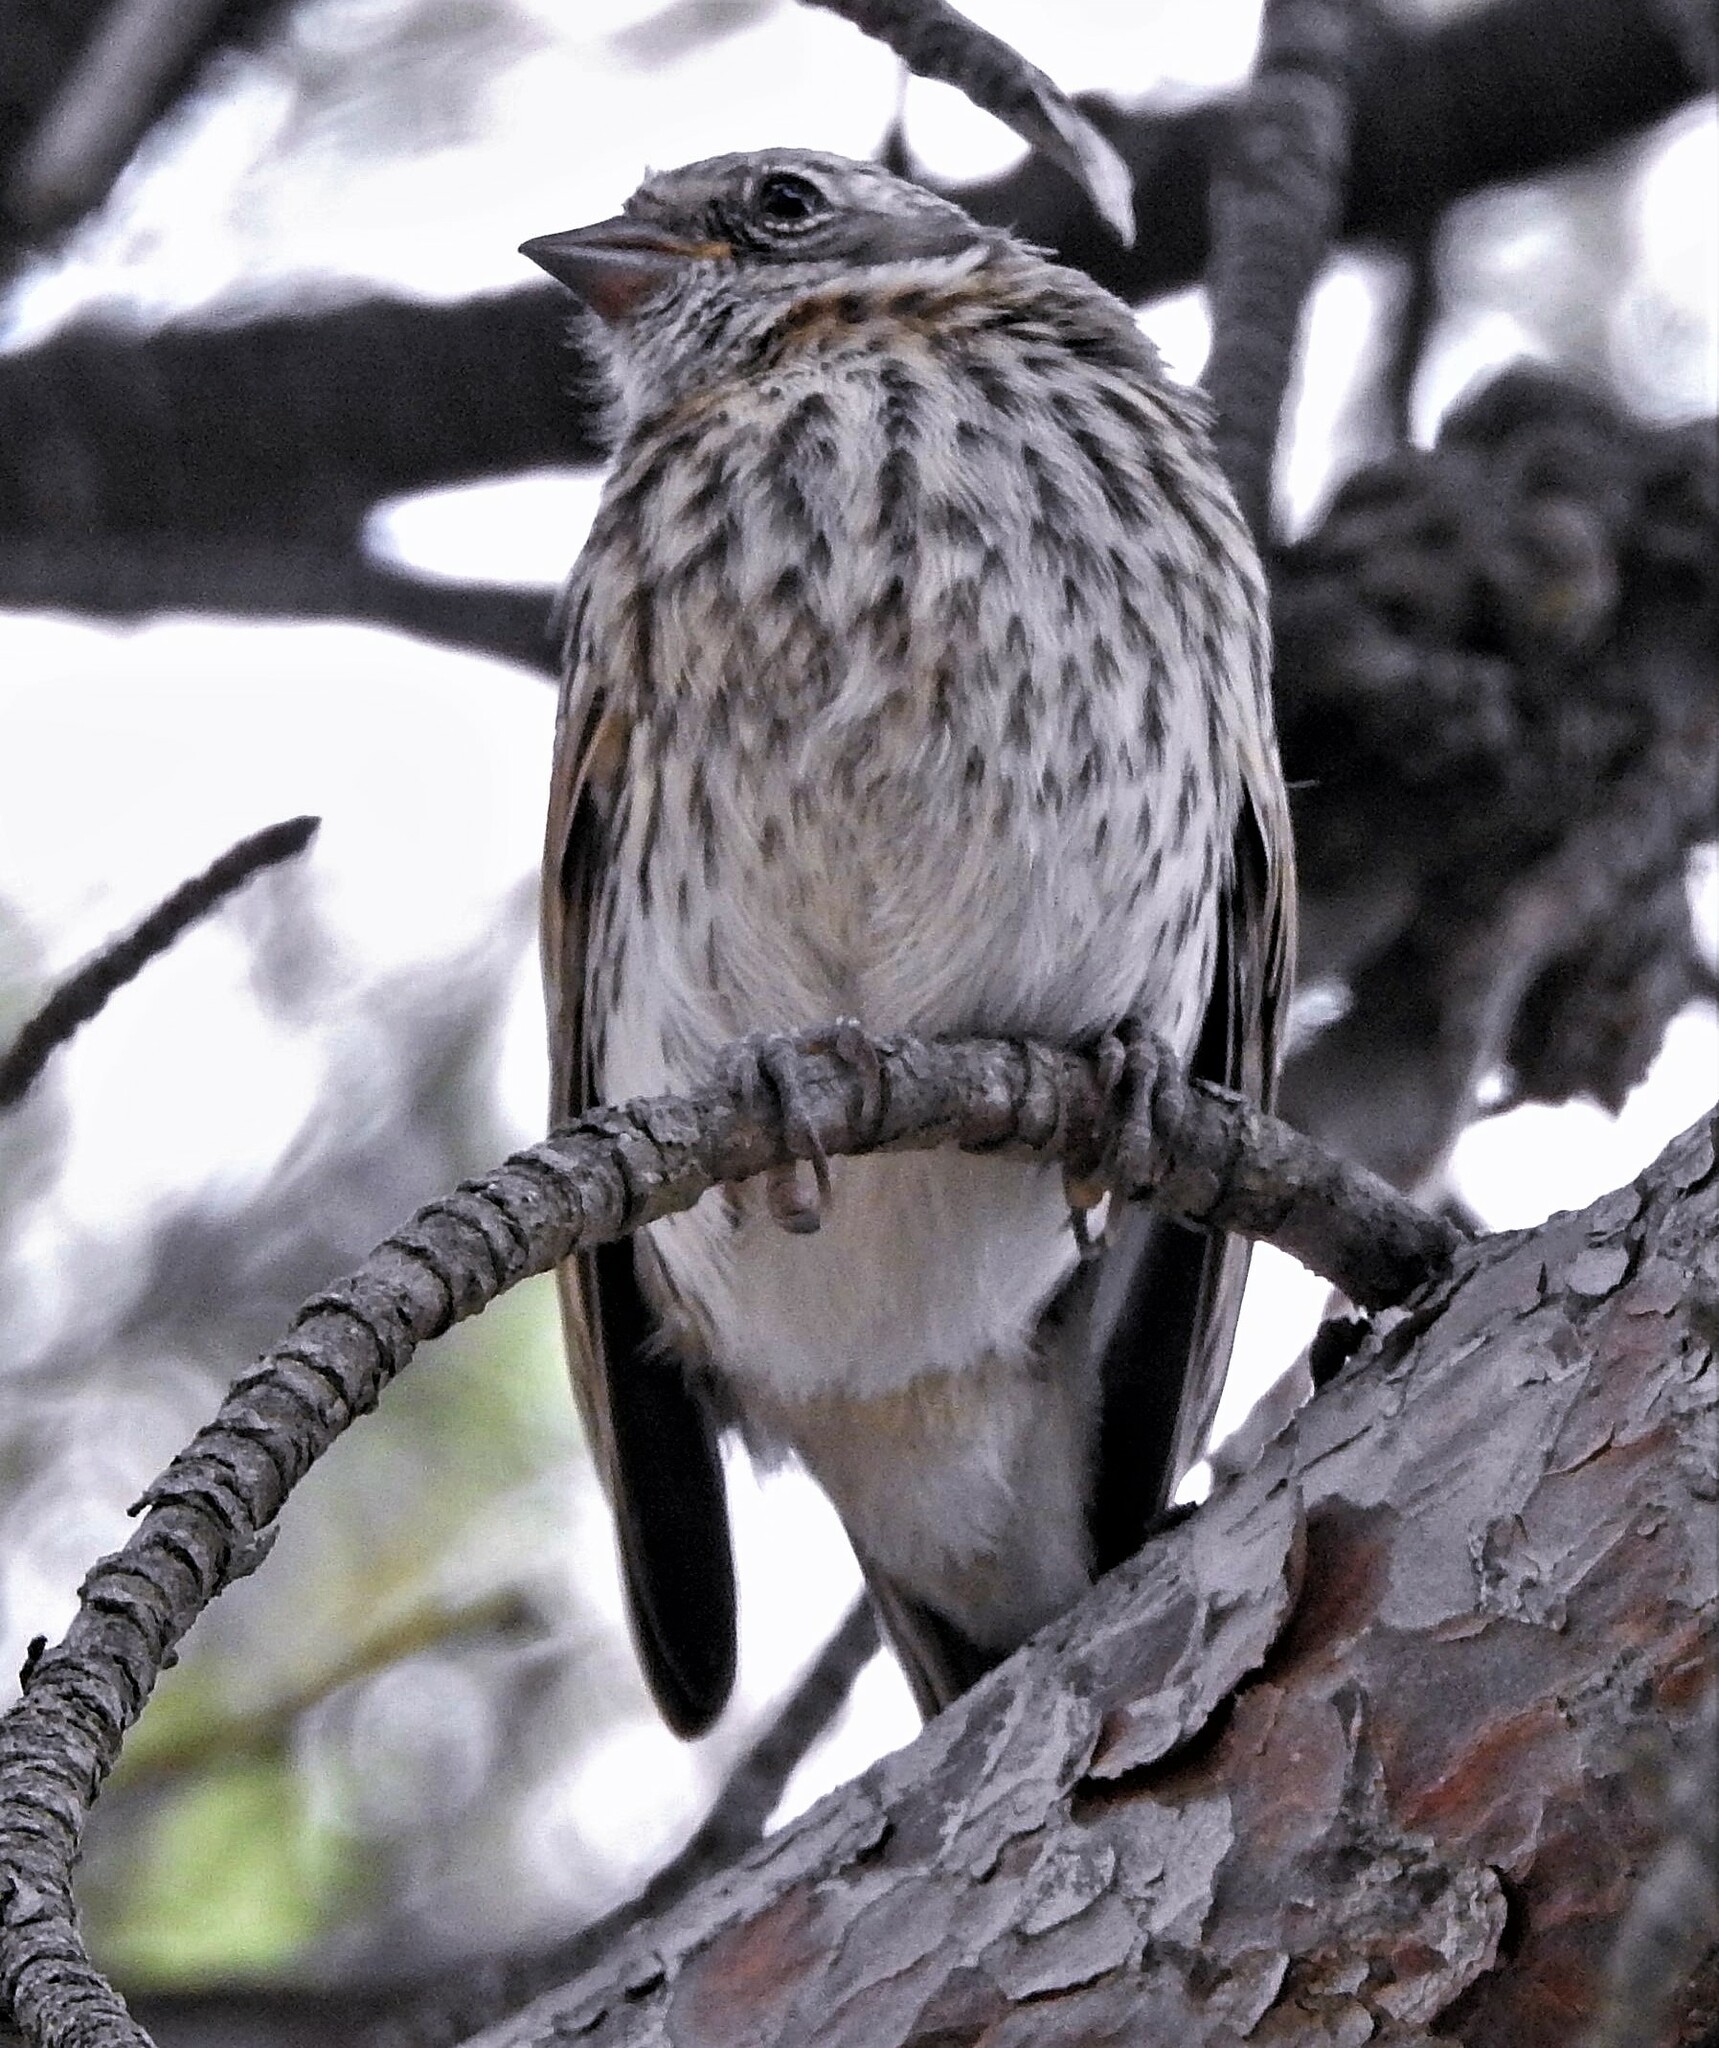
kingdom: Animalia
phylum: Chordata
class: Aves
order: Passeriformes
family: Passerellidae
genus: Zonotrichia
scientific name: Zonotrichia capensis
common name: Rufous-collared sparrow
